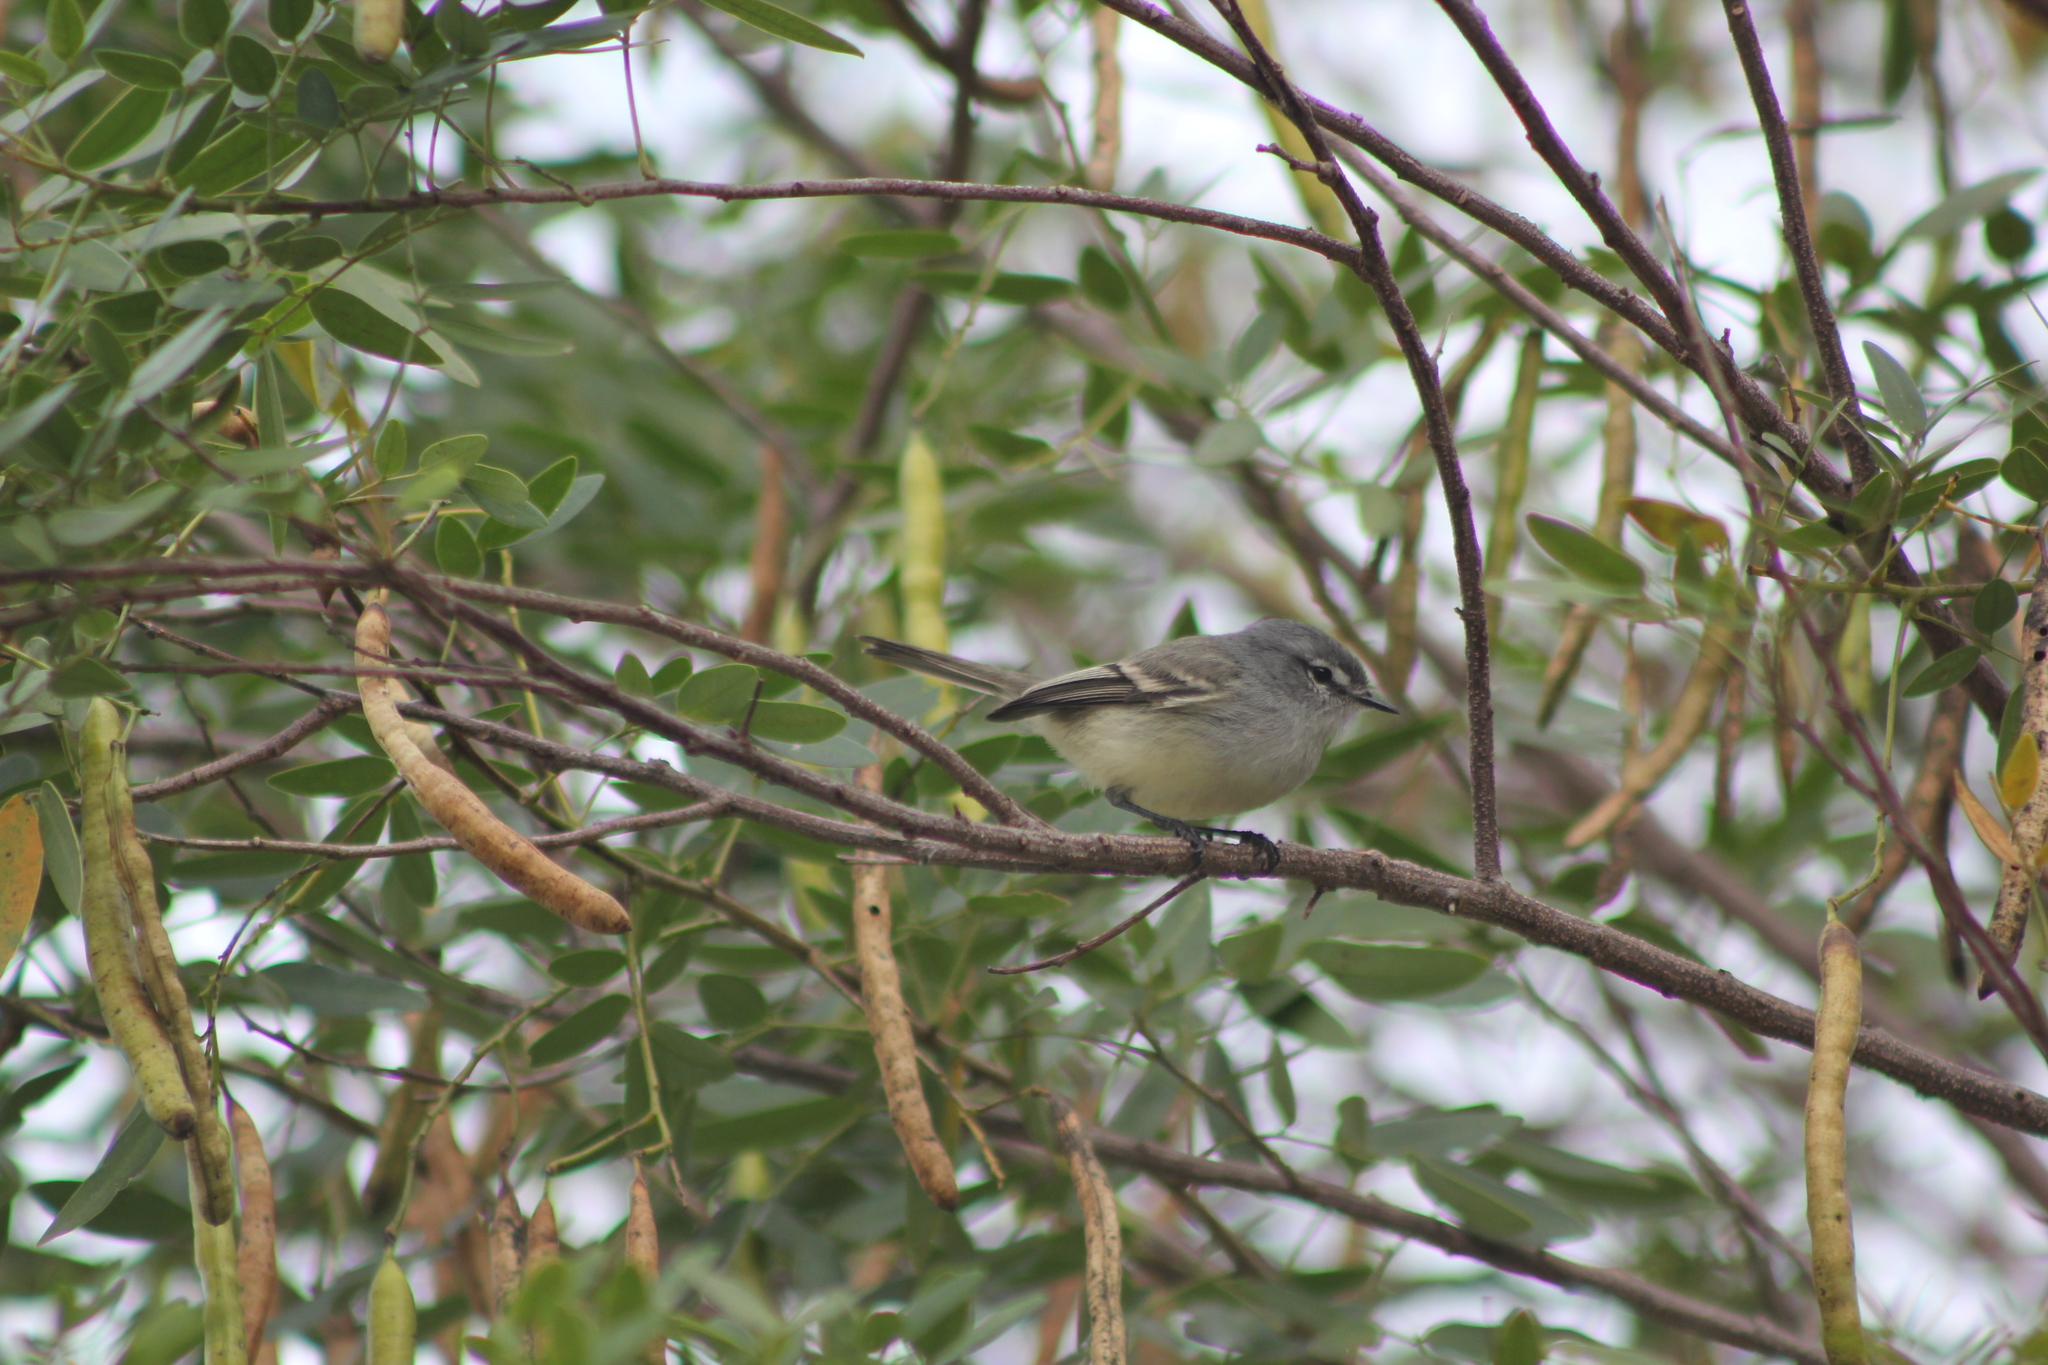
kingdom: Animalia
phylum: Chordata
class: Aves
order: Passeriformes
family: Tyrannidae
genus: Serpophaga
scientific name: Serpophaga subcristata
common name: White-crested tyrannulet
